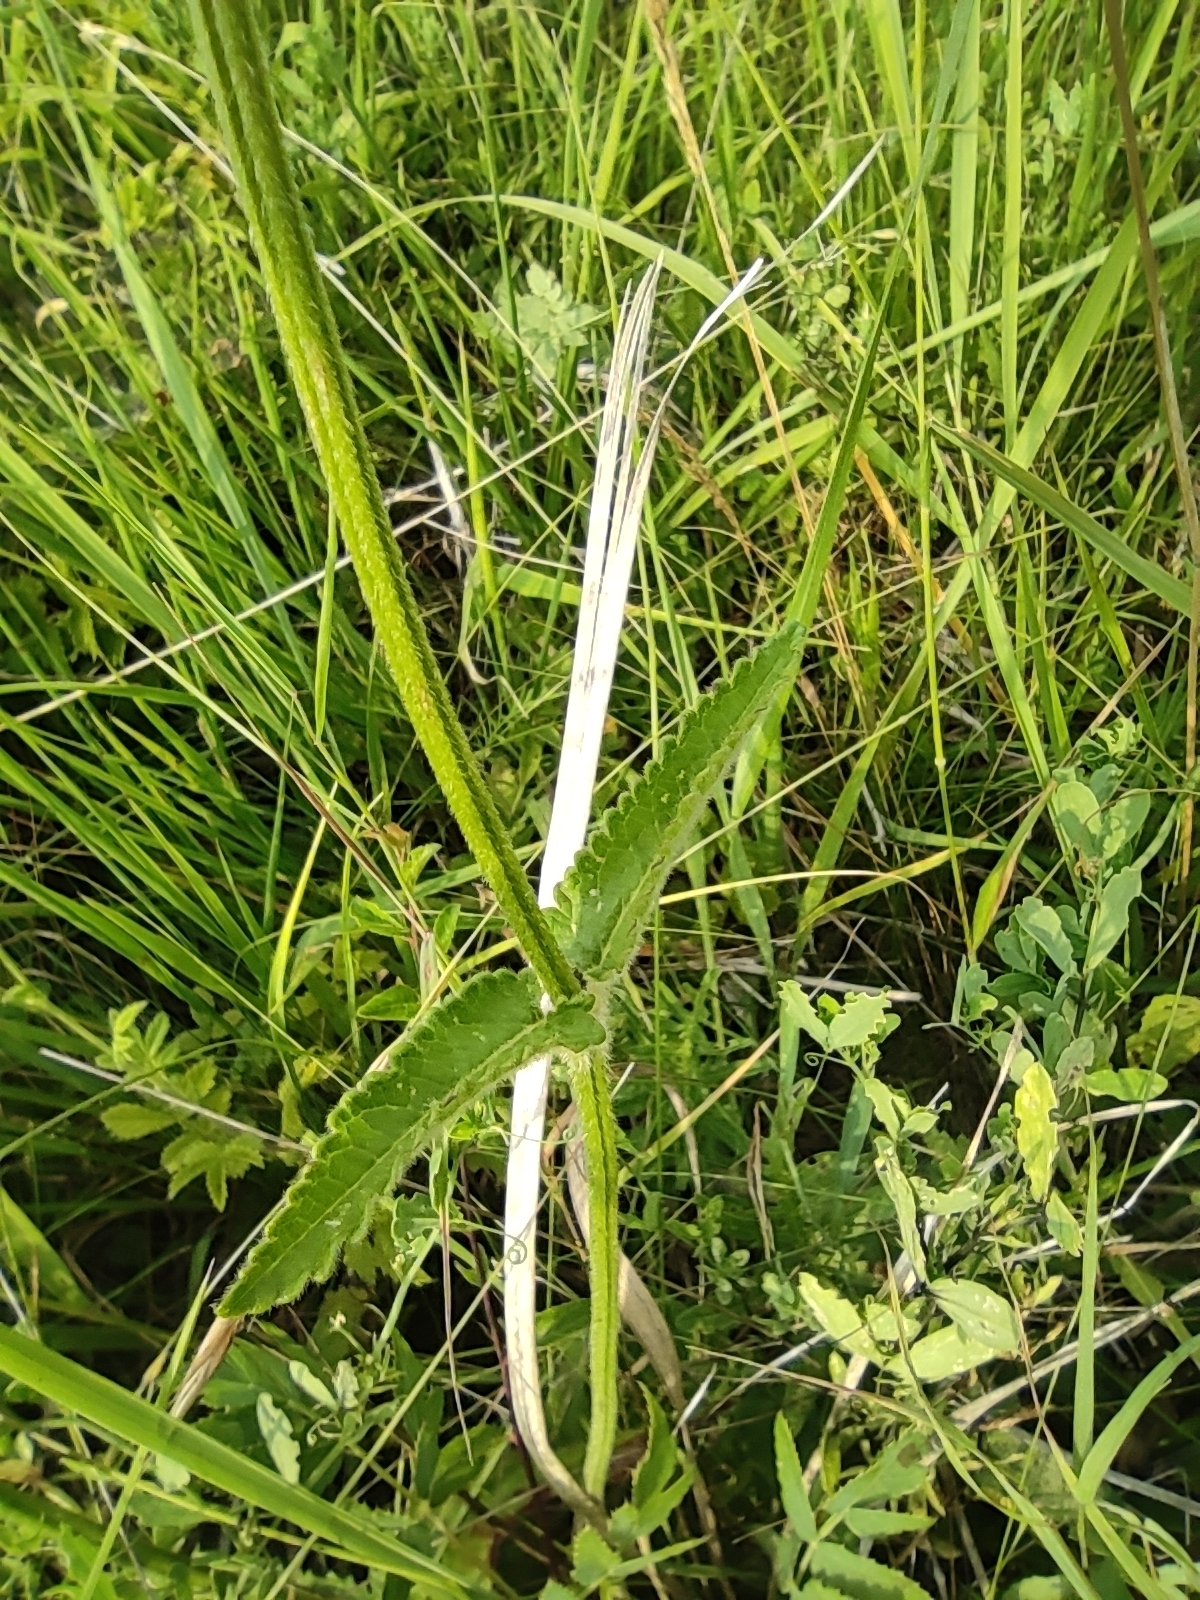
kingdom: Plantae
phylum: Tracheophyta
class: Magnoliopsida
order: Lamiales
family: Lamiaceae
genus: Betonica
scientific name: Betonica officinalis
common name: Bishop's-wort
